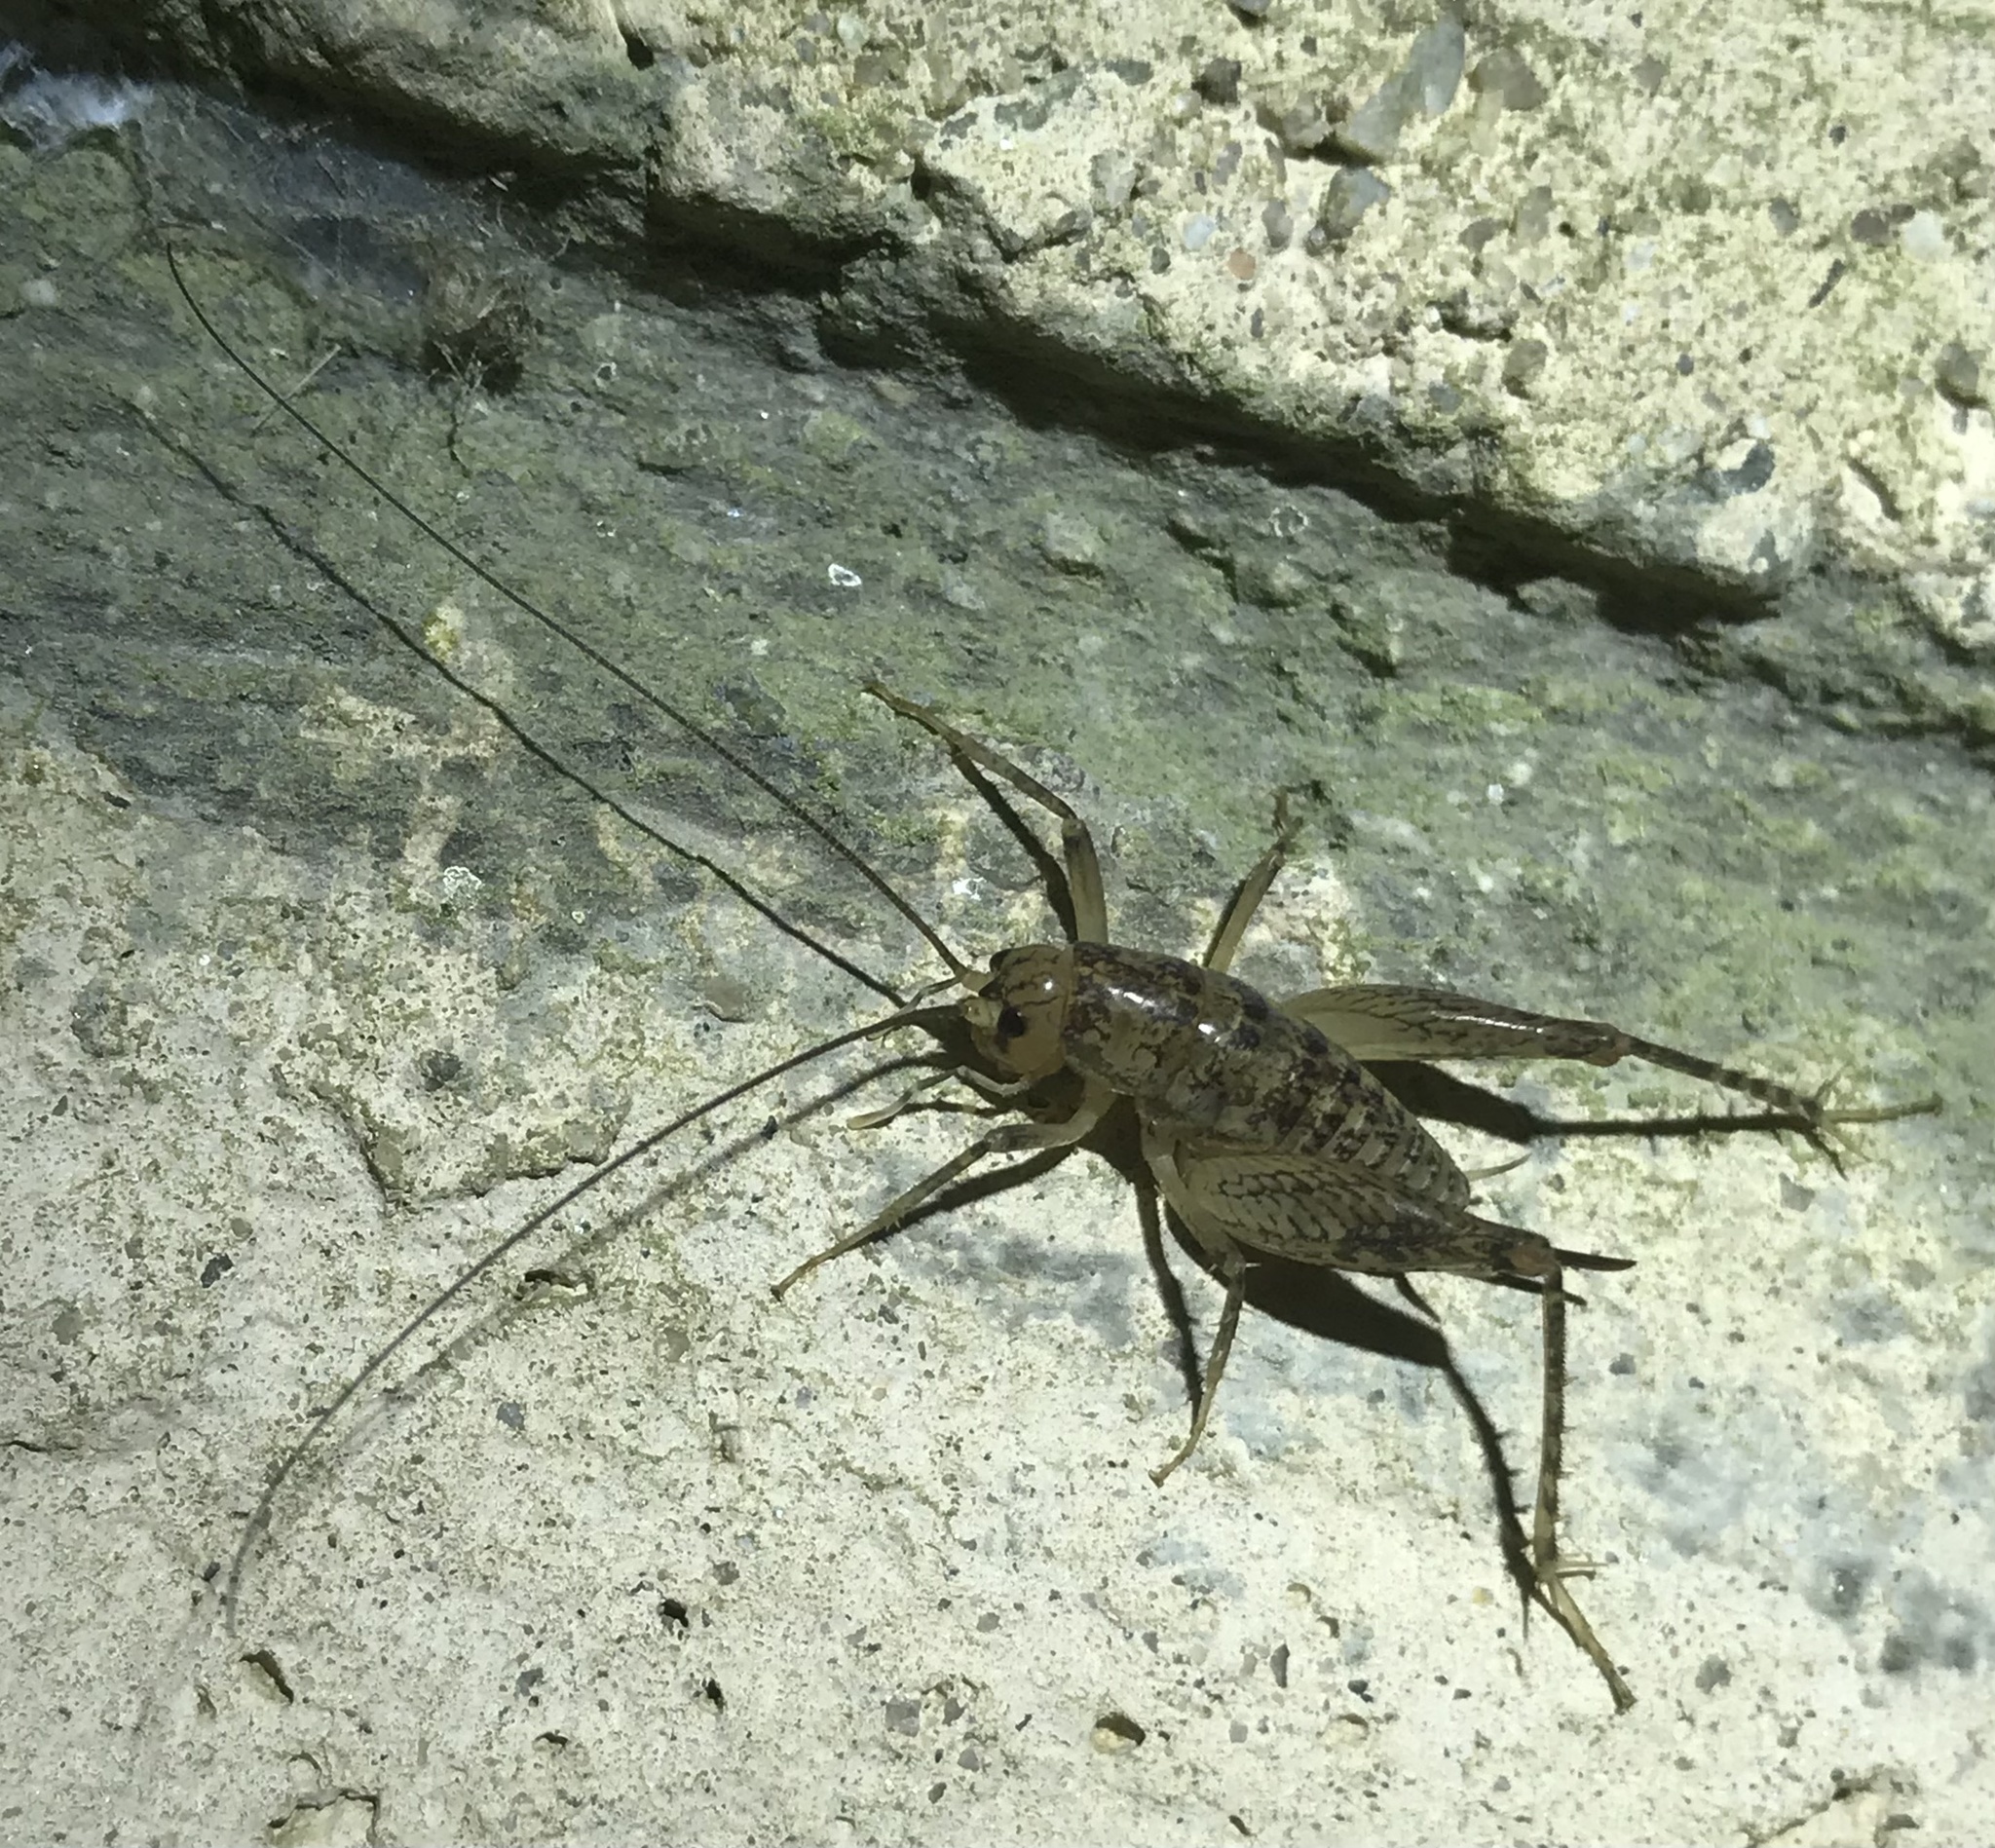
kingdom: Animalia
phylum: Arthropoda
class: Insecta
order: Orthoptera
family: Rhaphidophoridae
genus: Pristoceuthophilus
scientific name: Pristoceuthophilus
